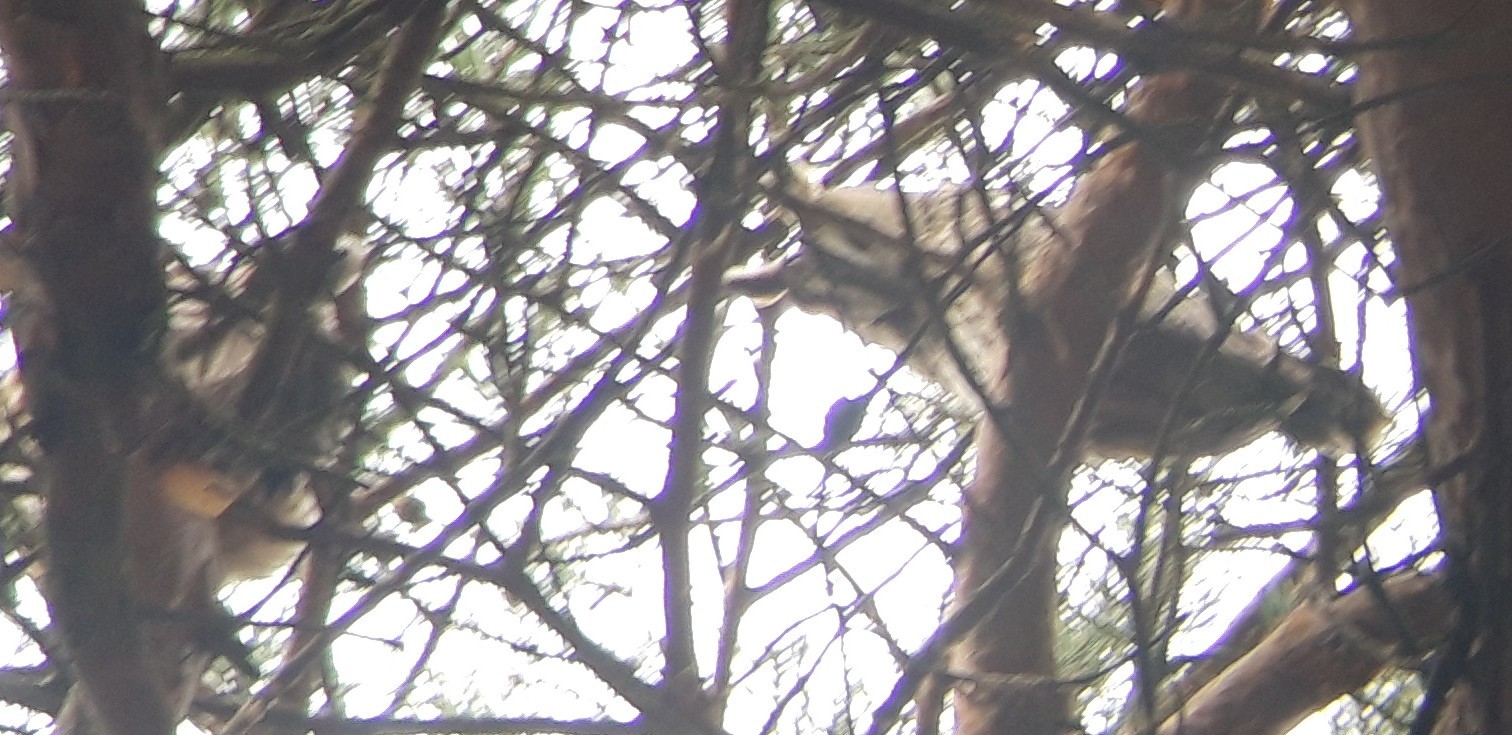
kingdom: Animalia
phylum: Chordata
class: Aves
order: Strigiformes
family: Strigidae
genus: Asio
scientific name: Asio otus
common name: Long-eared owl
